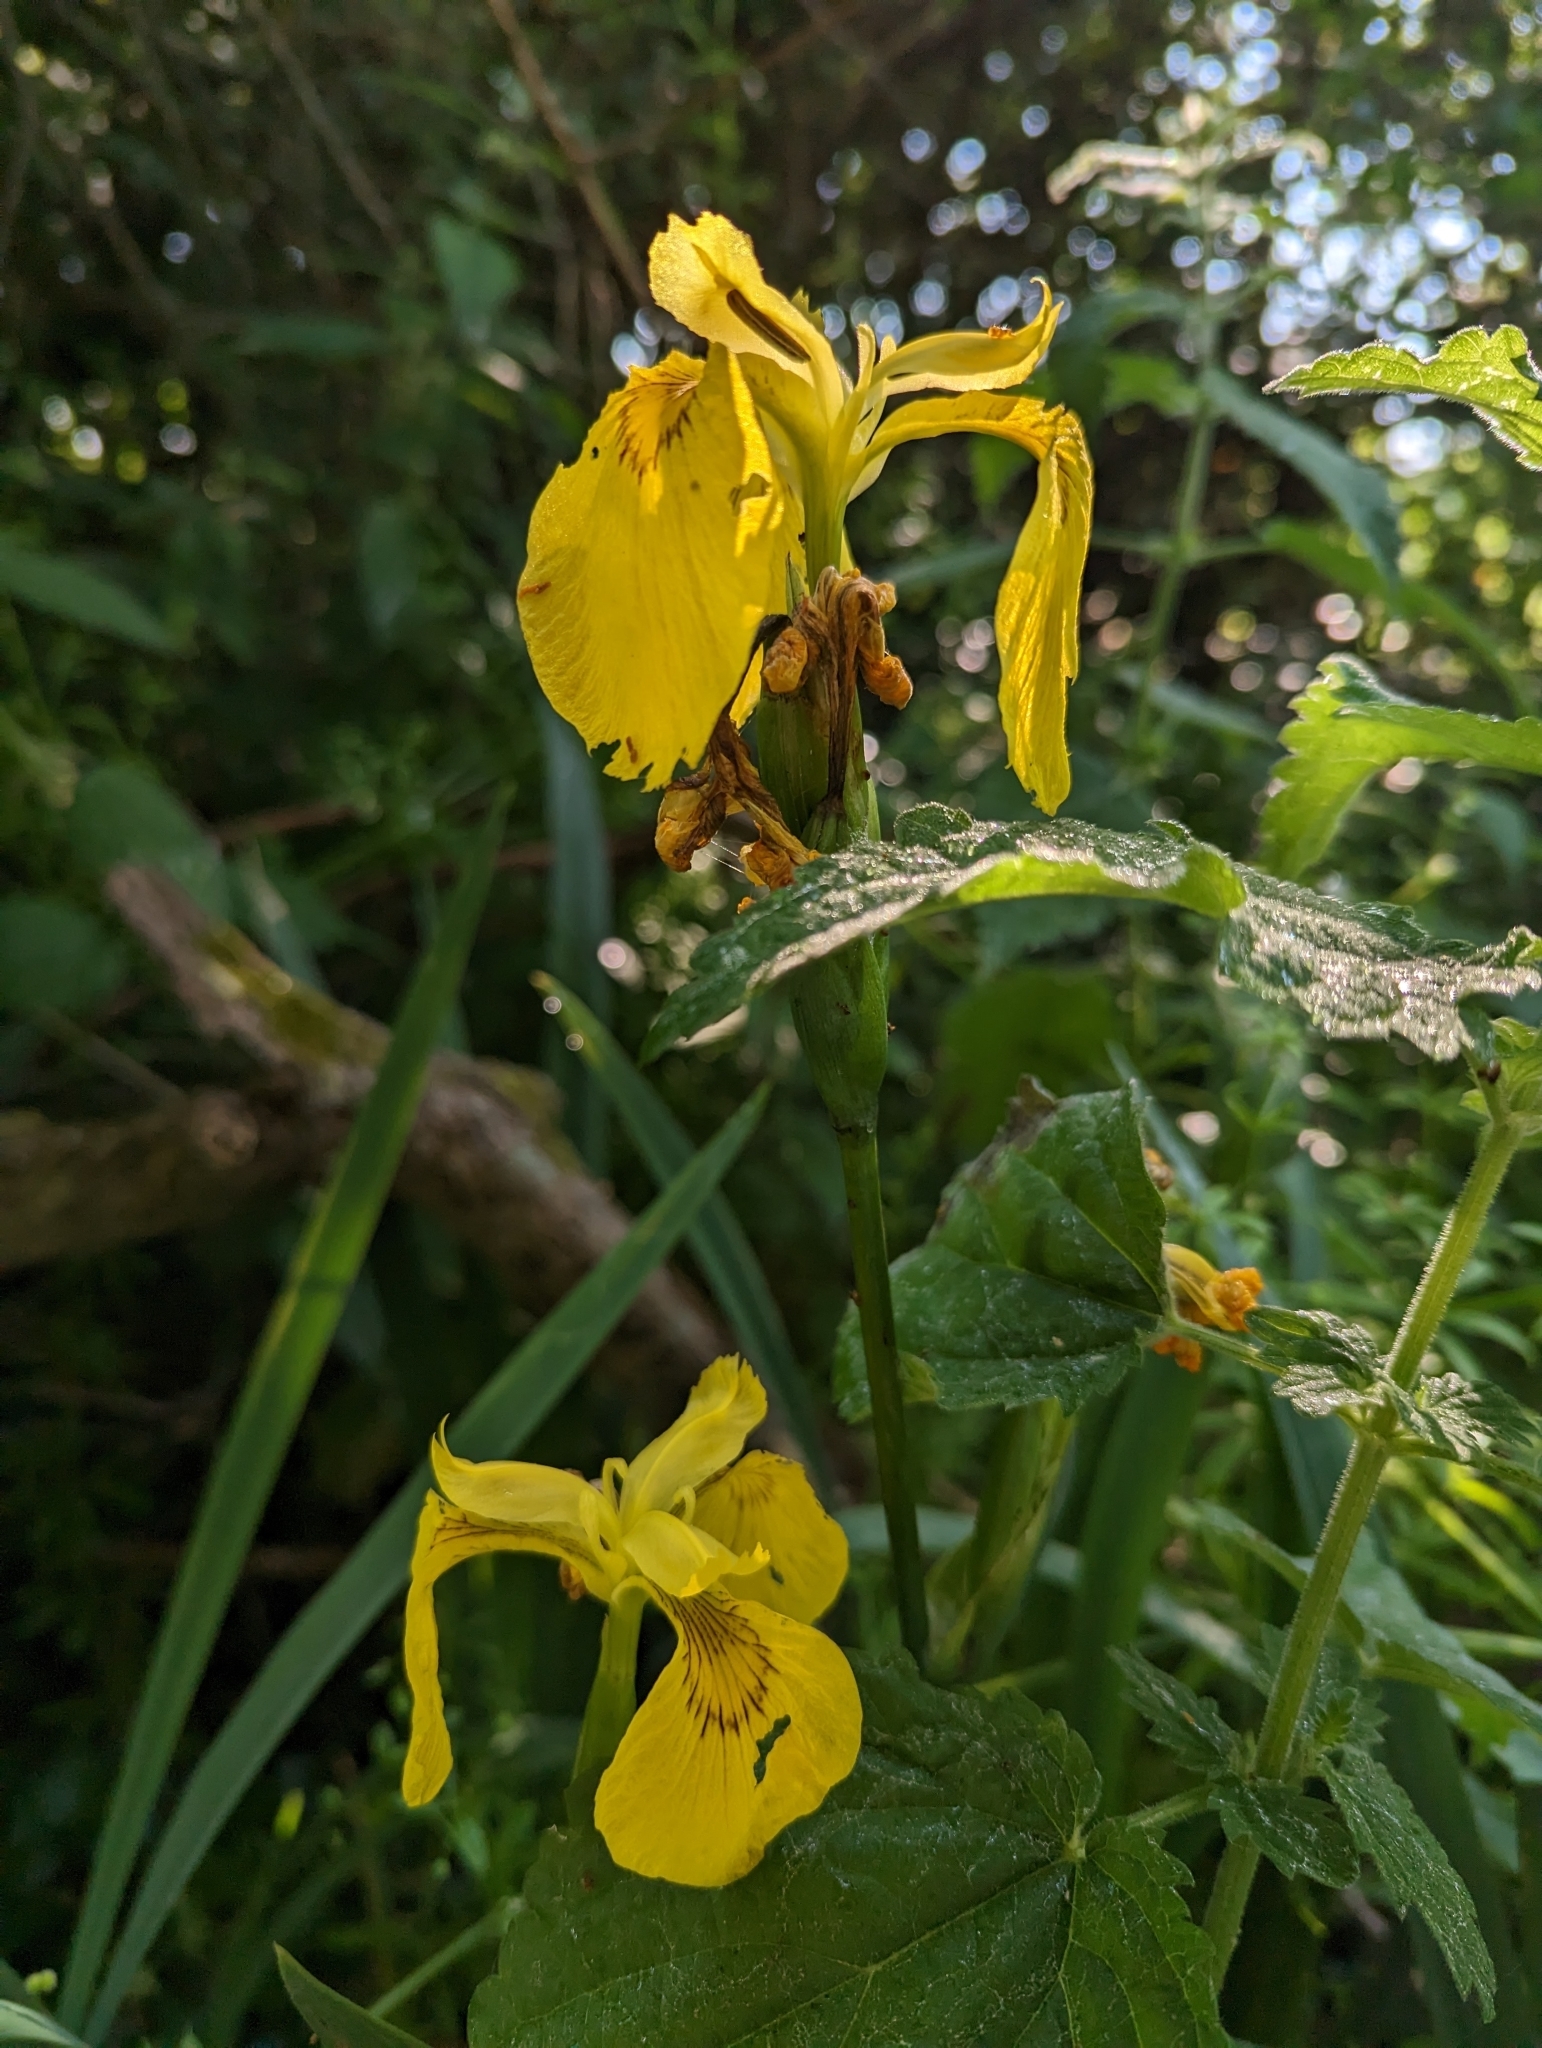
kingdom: Plantae
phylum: Tracheophyta
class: Liliopsida
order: Asparagales
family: Iridaceae
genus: Iris
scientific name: Iris pseudacorus
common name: Yellow flag
